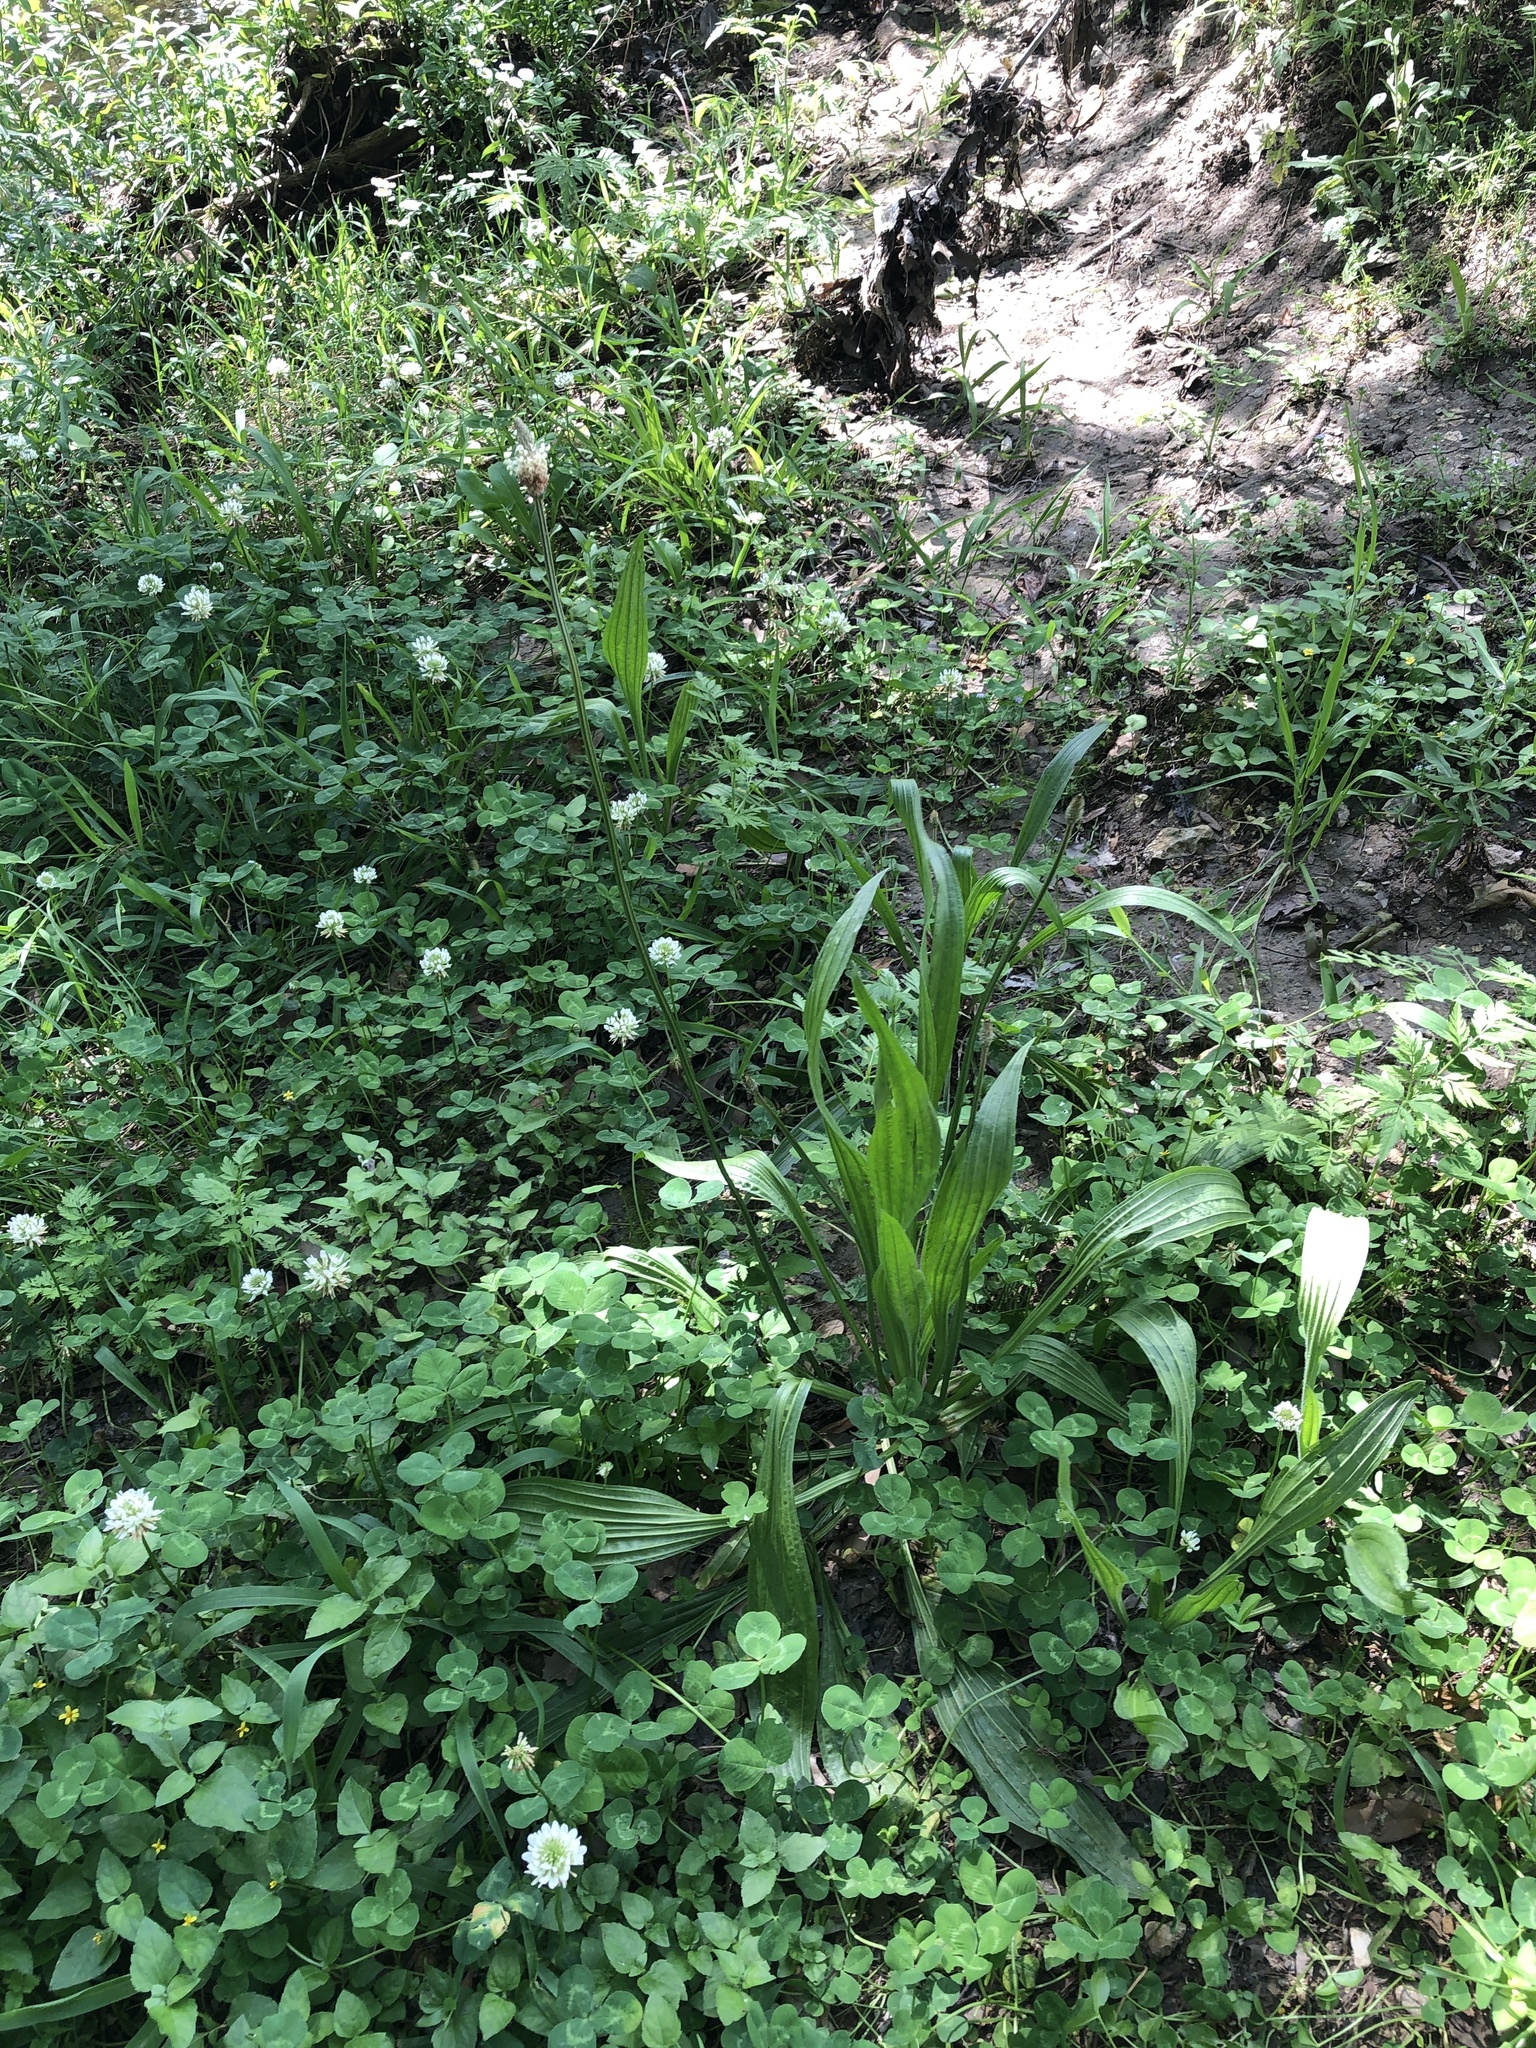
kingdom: Plantae
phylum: Tracheophyta
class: Magnoliopsida
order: Lamiales
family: Plantaginaceae
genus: Plantago
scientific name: Plantago lanceolata
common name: Ribwort plantain
